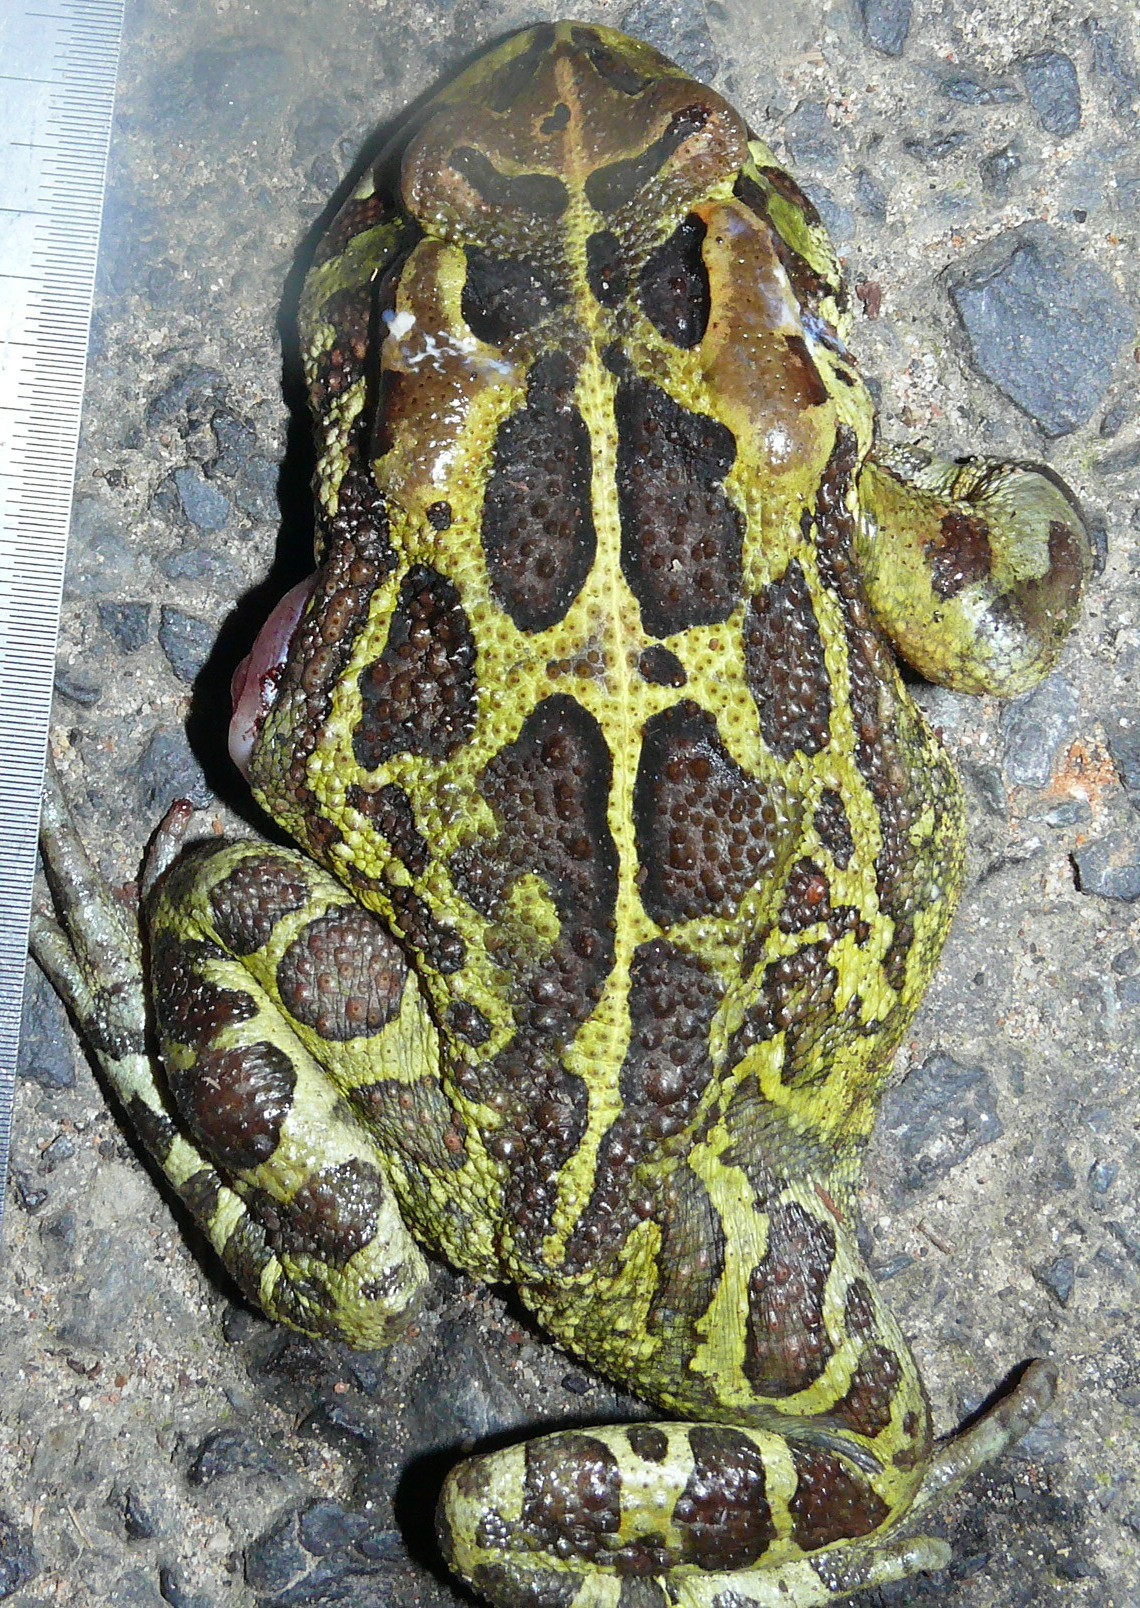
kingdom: Animalia
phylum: Chordata
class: Amphibia
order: Anura
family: Bufonidae
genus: Sclerophrys
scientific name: Sclerophrys pantherina
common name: Panther toad
